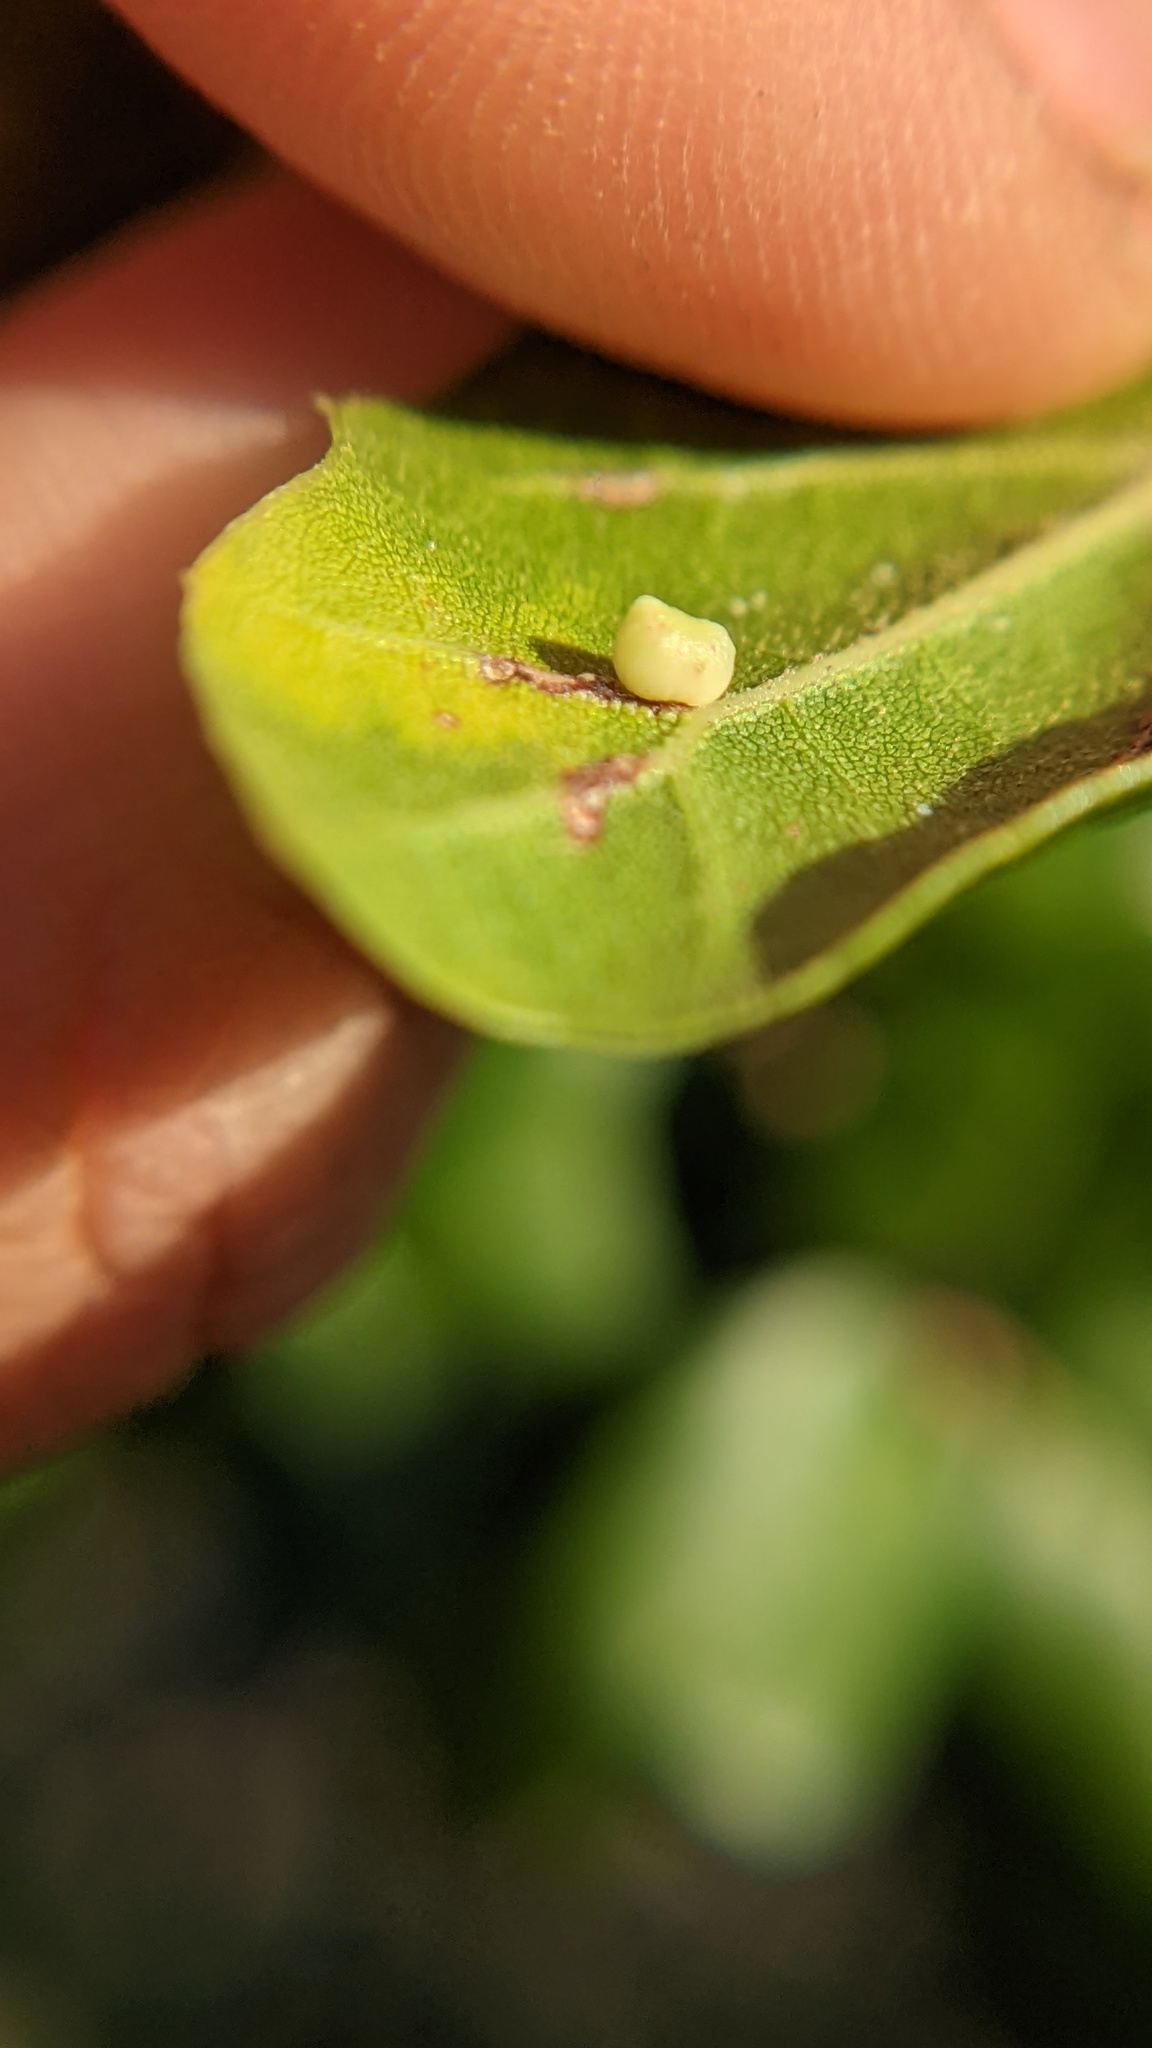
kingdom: Animalia
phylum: Arthropoda
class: Insecta
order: Hymenoptera
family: Cynipidae
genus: Dryocosmus
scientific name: Dryocosmus
